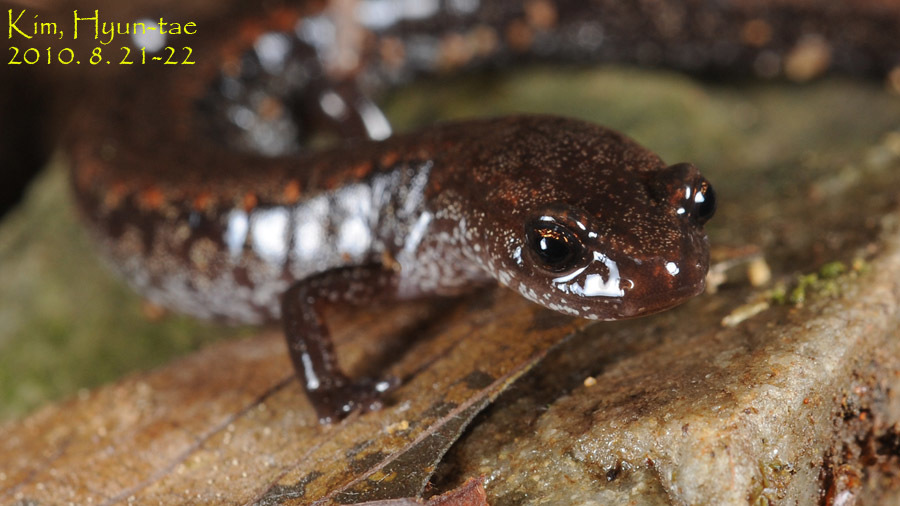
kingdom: Animalia
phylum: Chordata
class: Amphibia
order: Caudata
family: Plethodontidae
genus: Karsenia
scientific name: Karsenia koreana
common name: Korean crevice salamander
